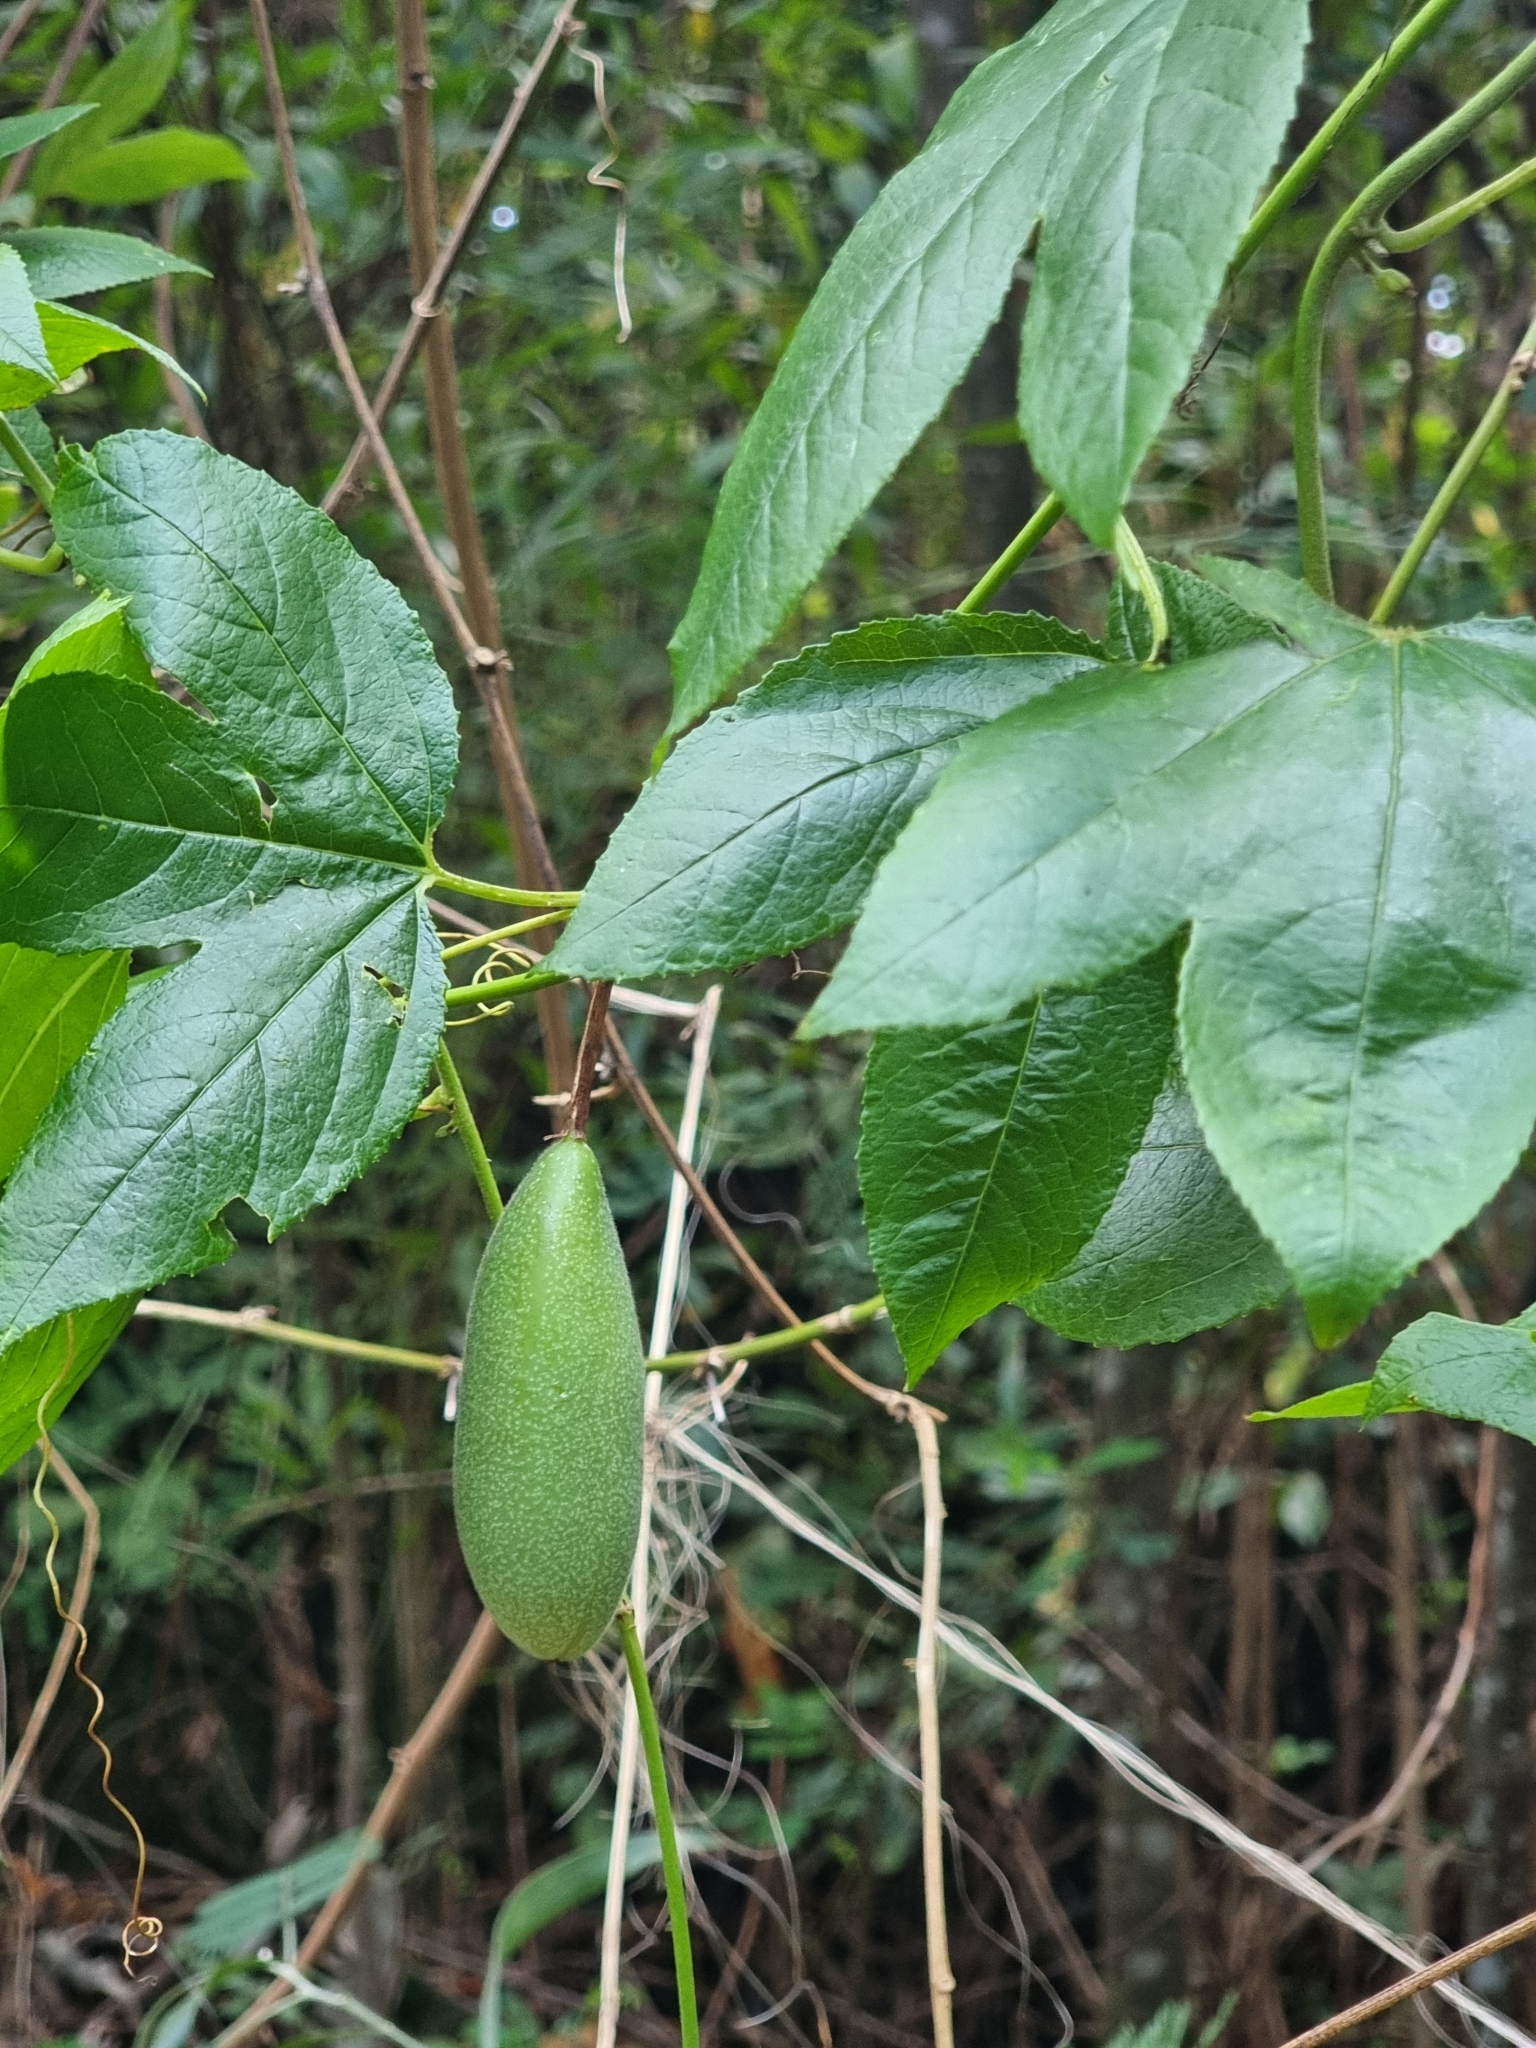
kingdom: Plantae
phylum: Tracheophyta
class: Magnoliopsida
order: Malpighiales
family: Passifloraceae
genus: Passiflora
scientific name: Passiflora tarminiana
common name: Banana poka
